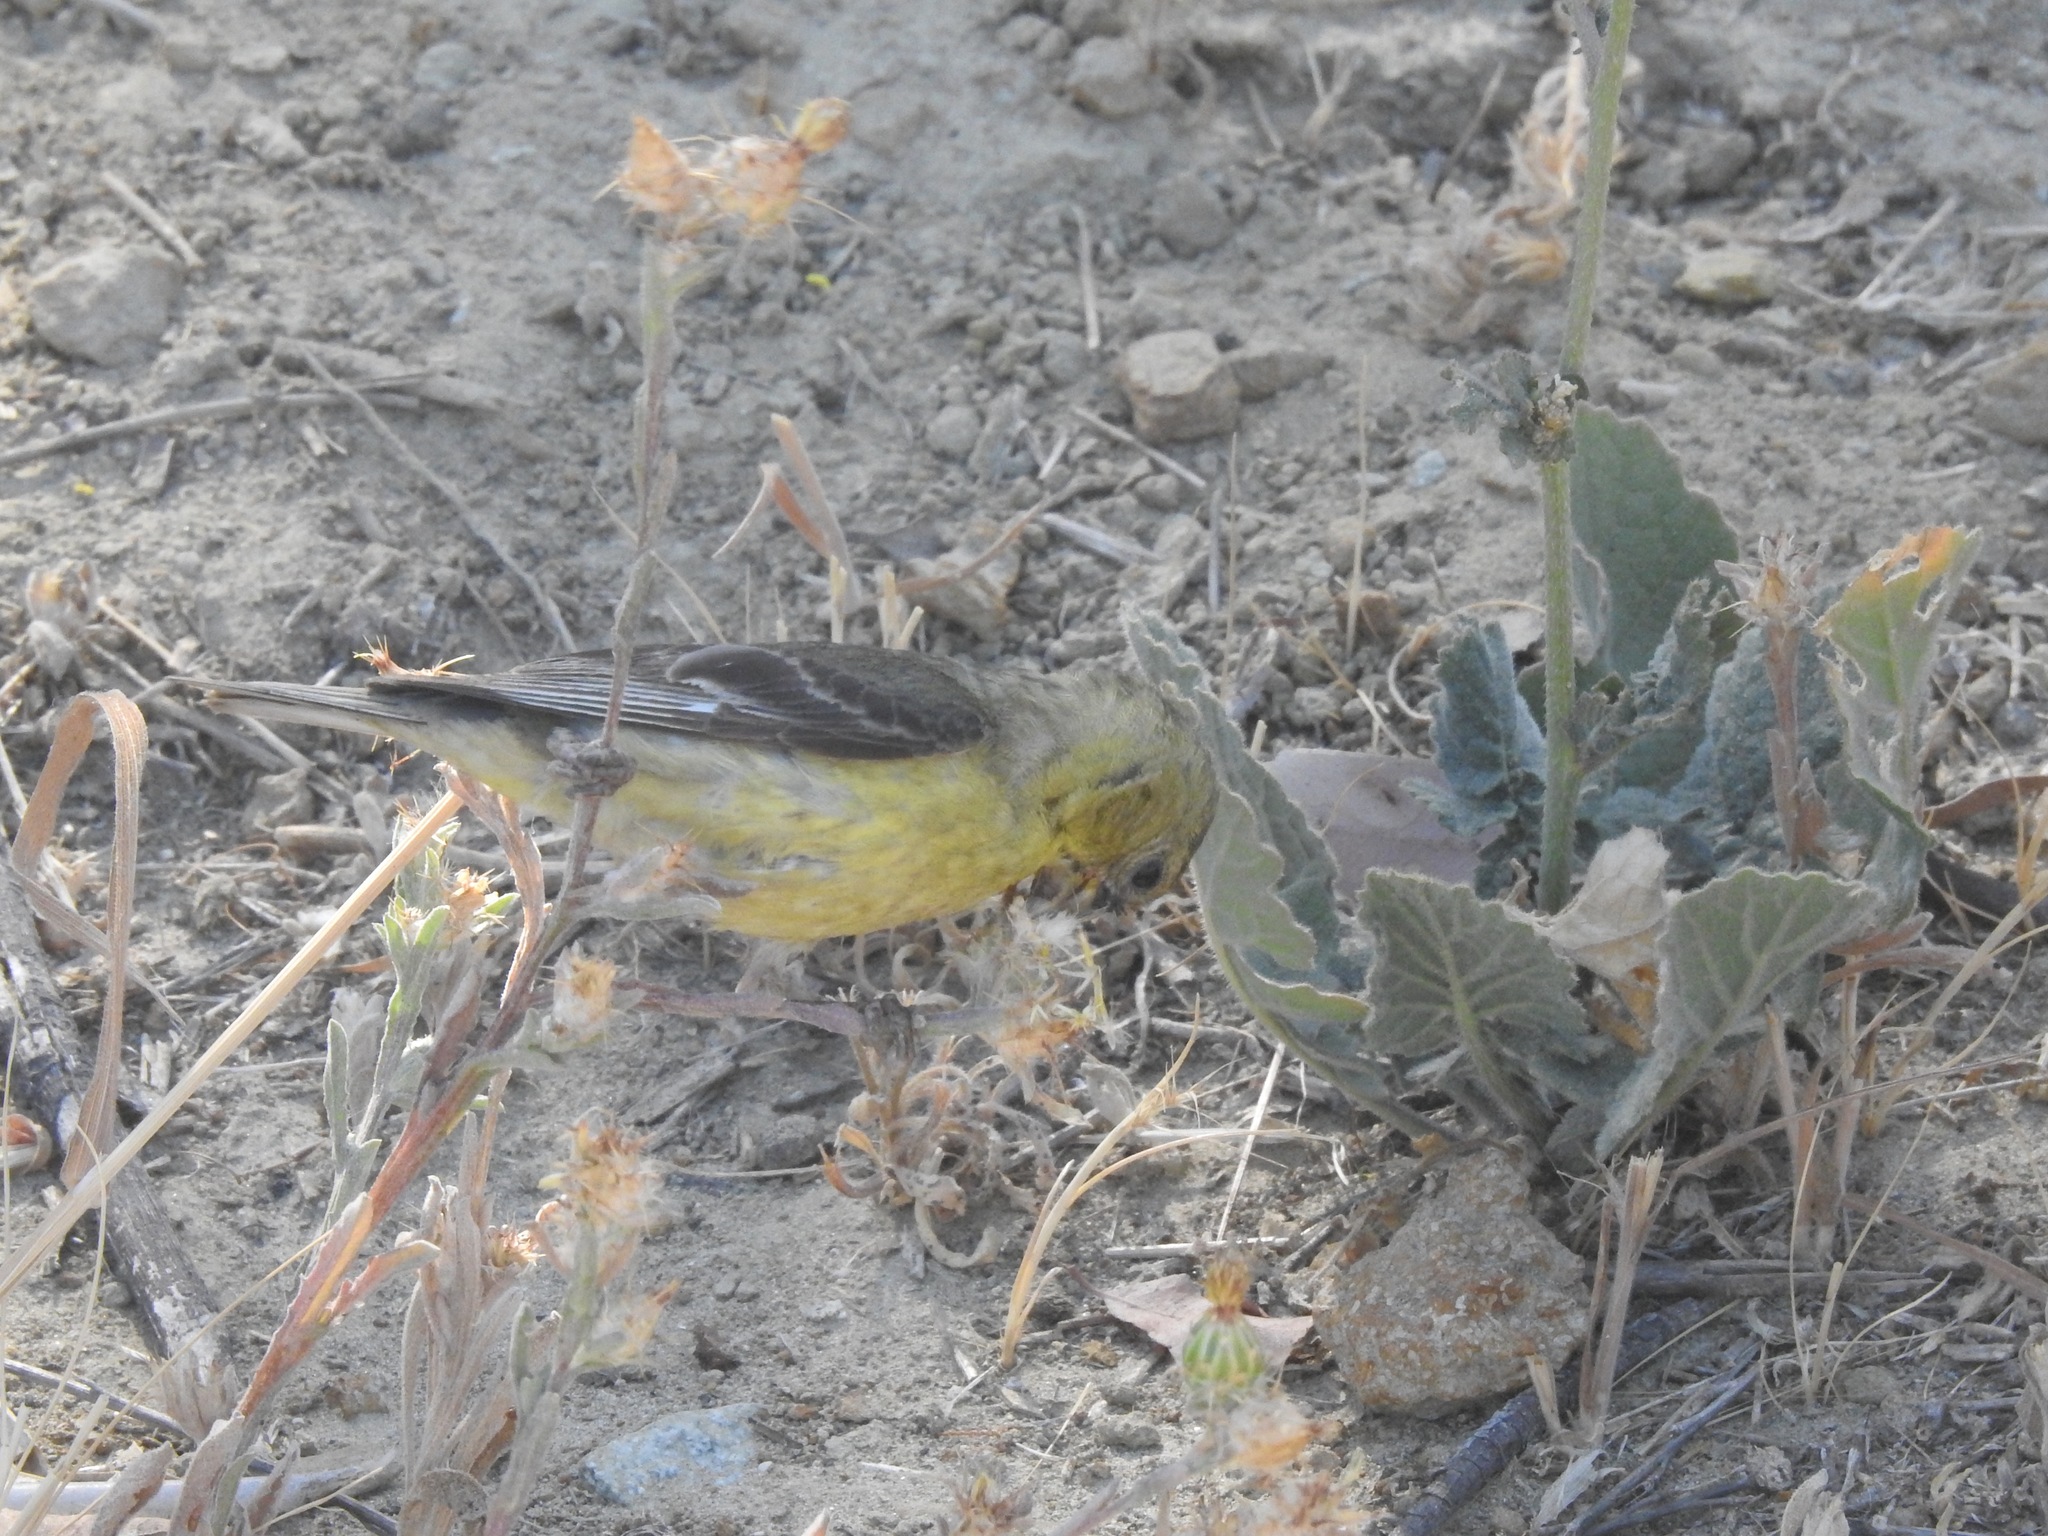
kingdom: Animalia
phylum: Chordata
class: Aves
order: Passeriformes
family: Fringillidae
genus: Spinus
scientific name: Spinus psaltria
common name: Lesser goldfinch
